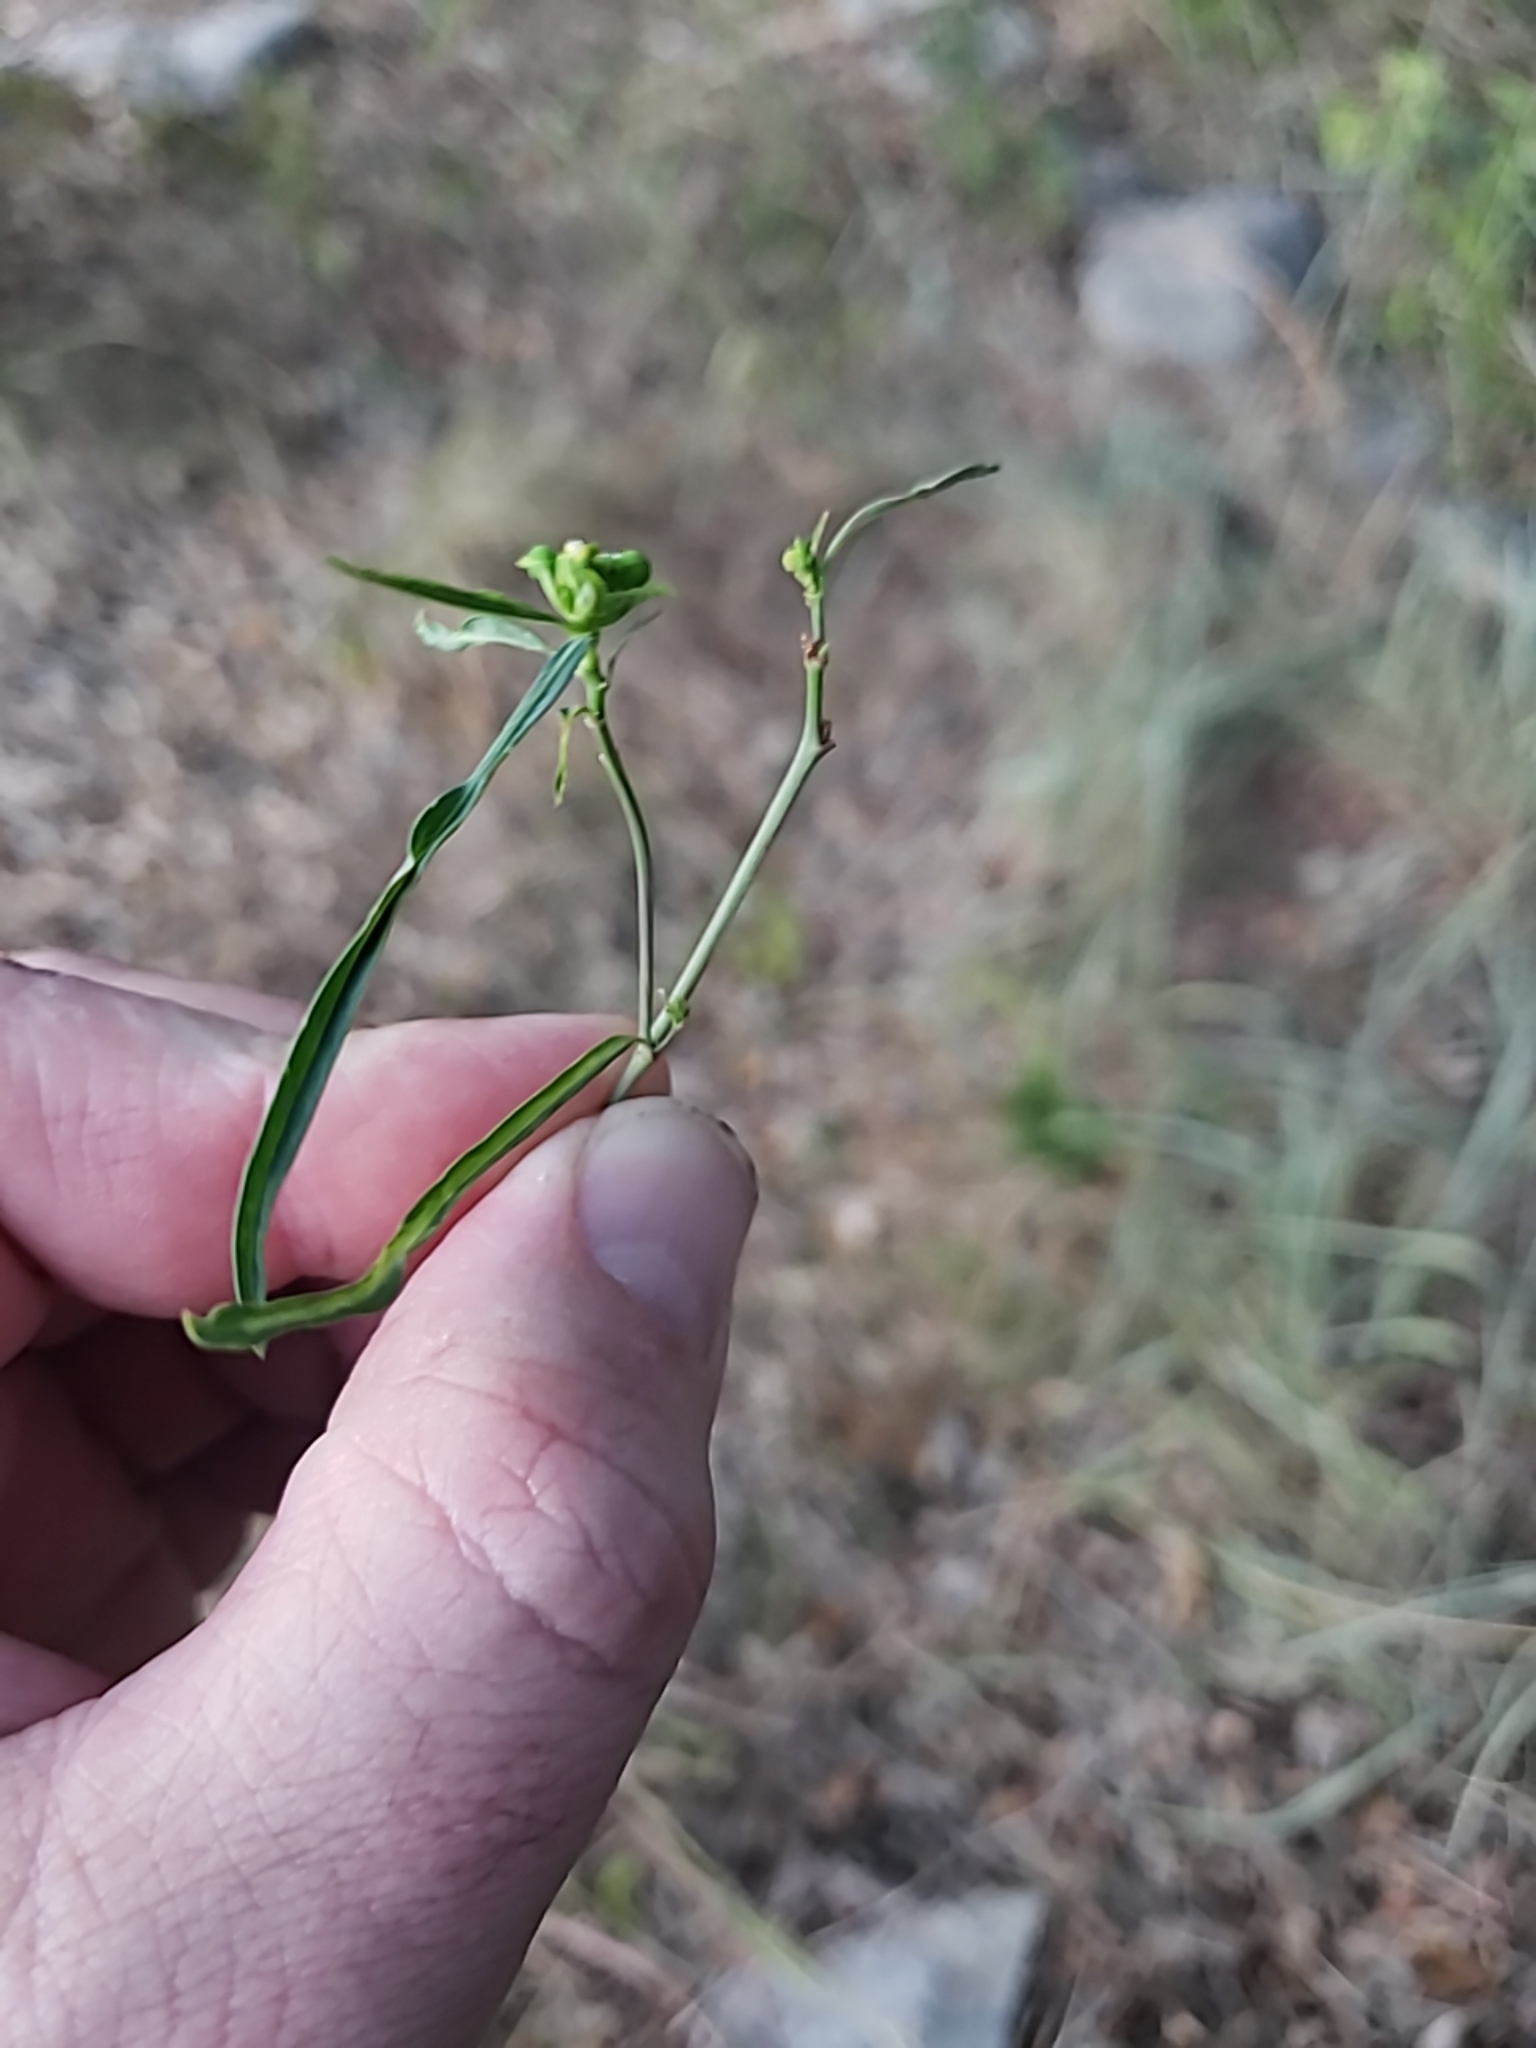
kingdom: Plantae
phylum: Tracheophyta
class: Magnoliopsida
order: Malpighiales
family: Euphorbiaceae
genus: Euphorbia
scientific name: Euphorbia heterophylla
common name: Mexican fireplant
